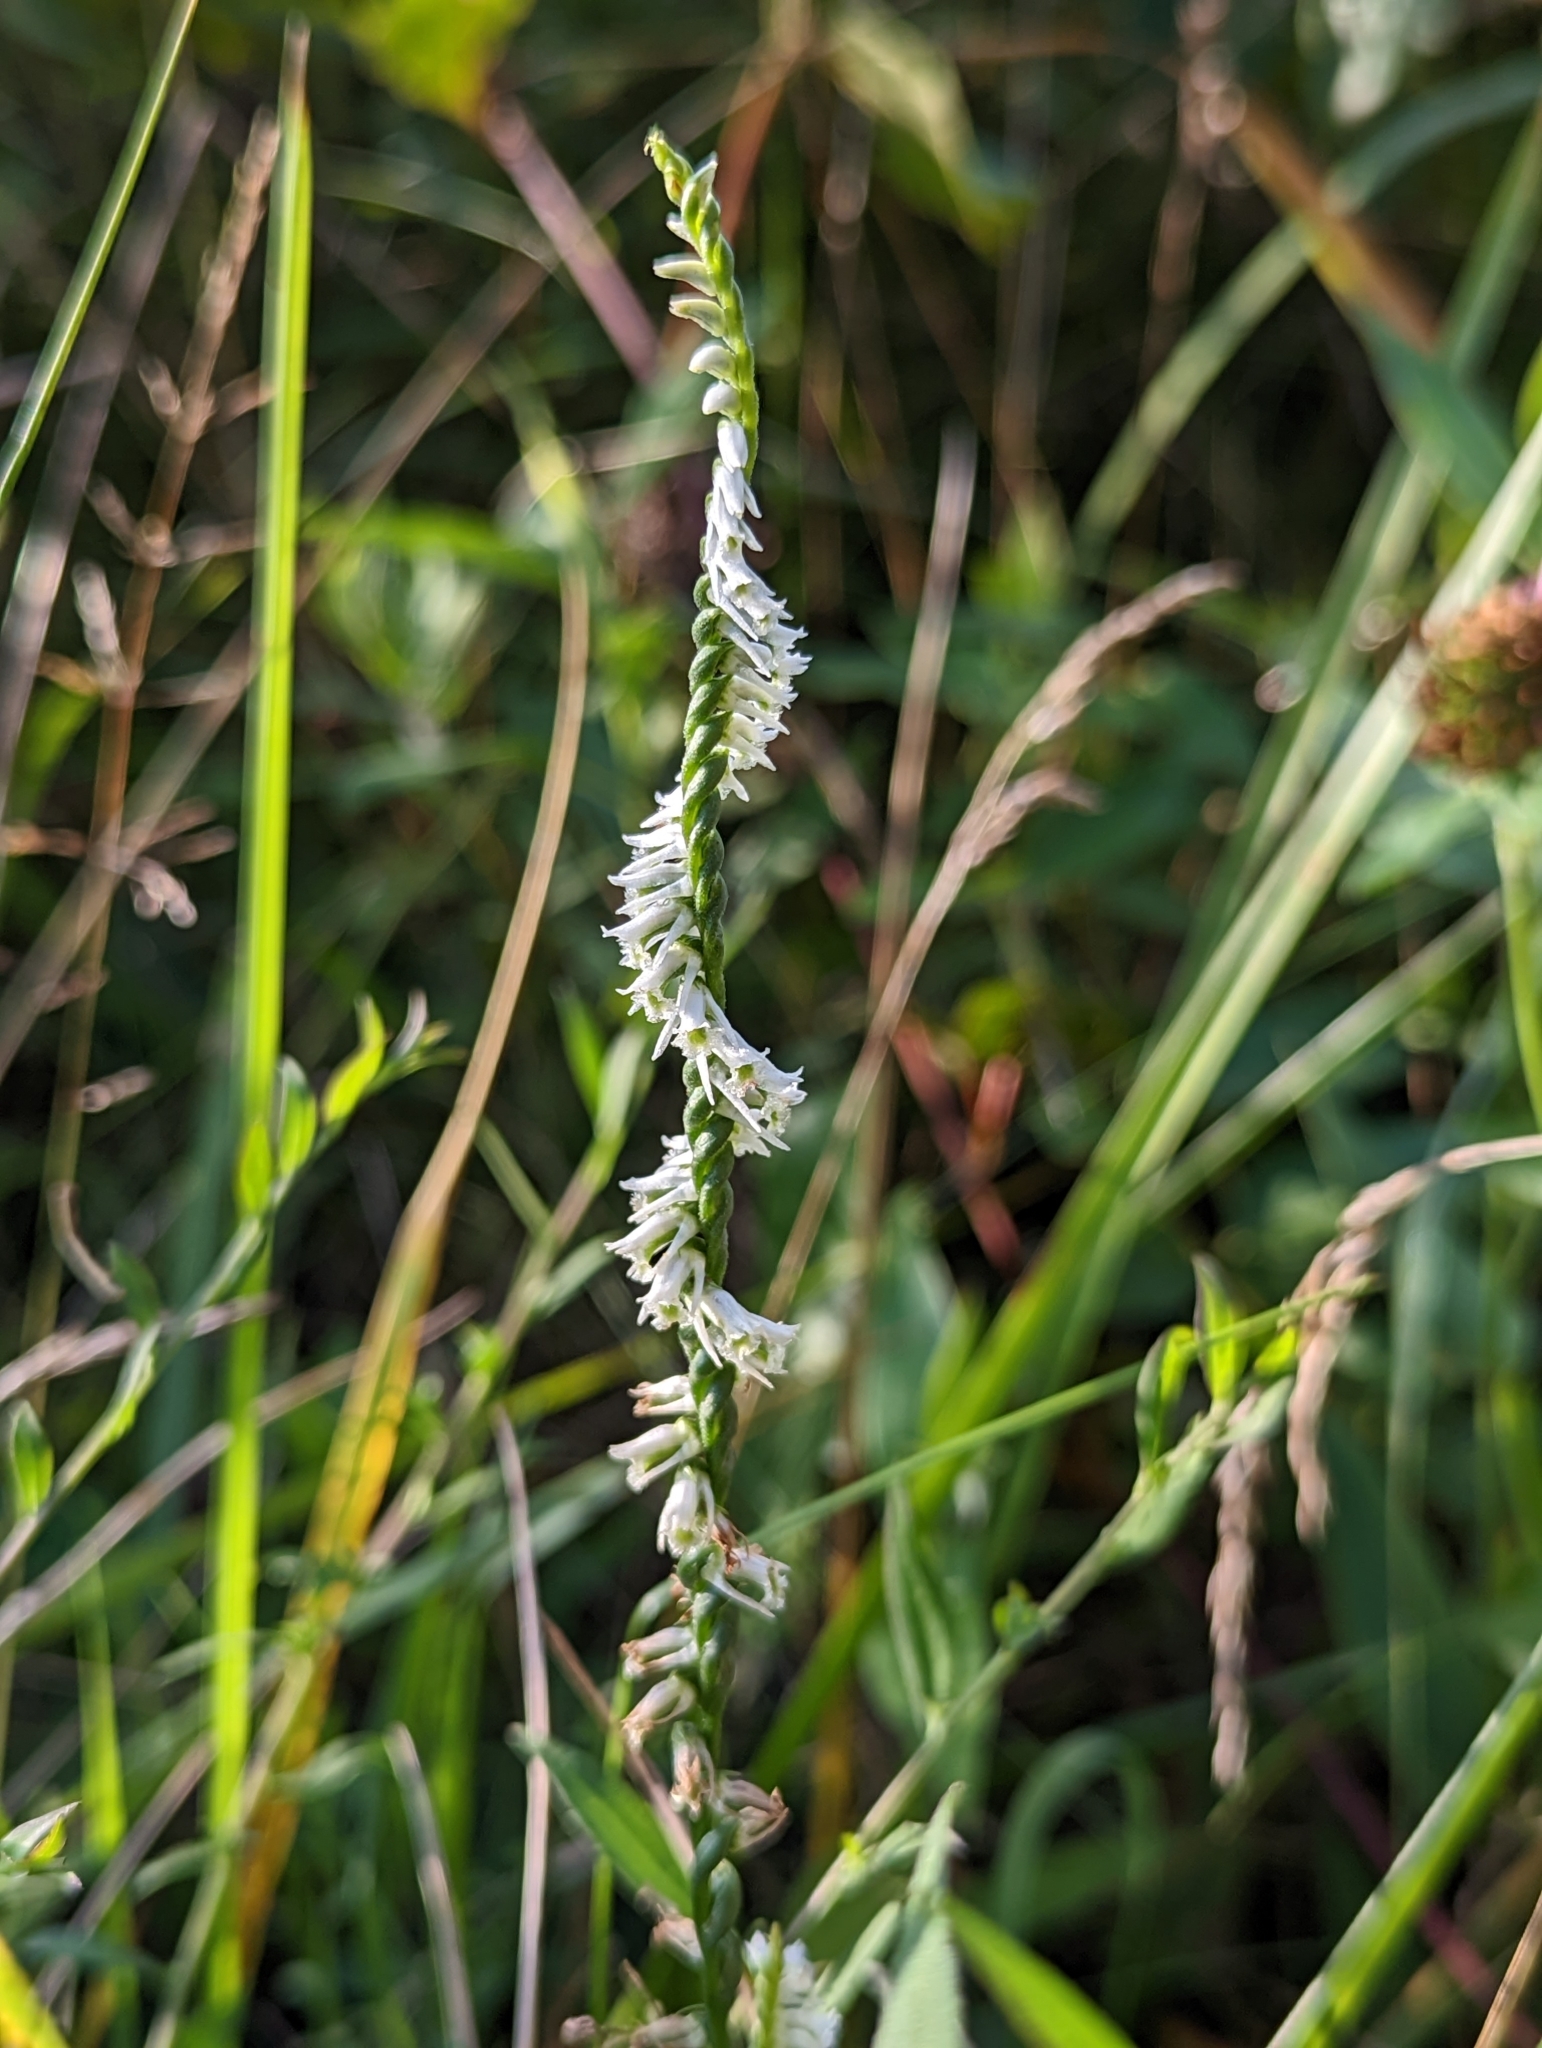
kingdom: Plantae
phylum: Tracheophyta
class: Liliopsida
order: Asparagales
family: Orchidaceae
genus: Spiranthes
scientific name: Spiranthes lacera
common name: Northern slender ladies'-tresses
